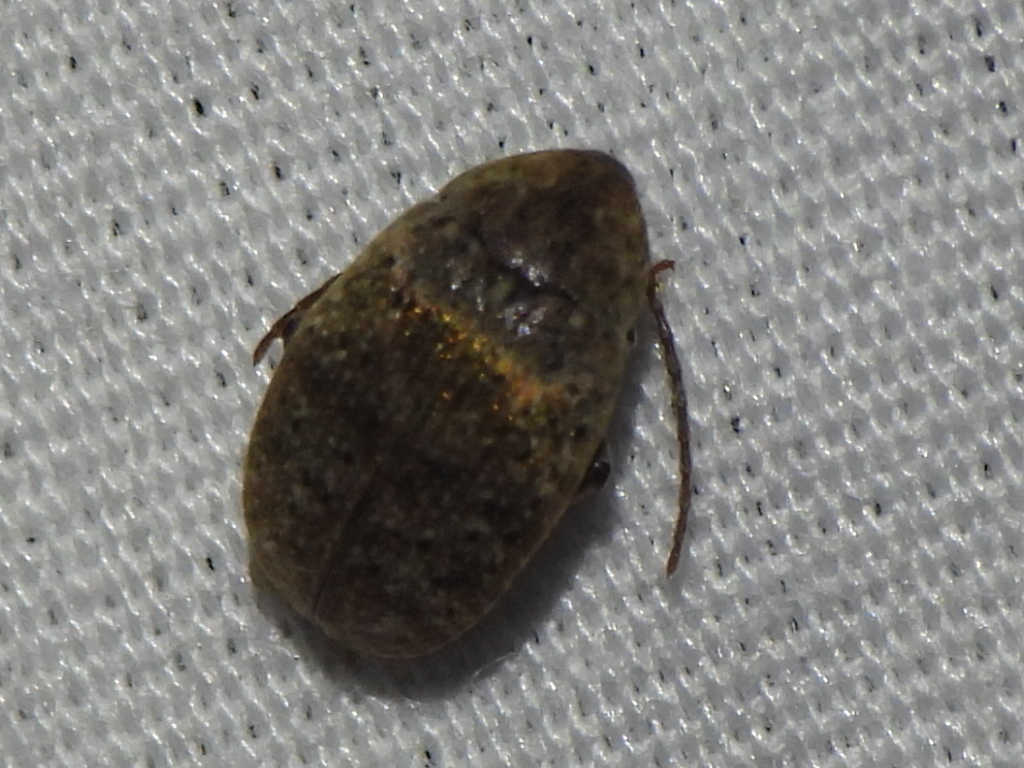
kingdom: Animalia
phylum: Arthropoda
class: Insecta
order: Coleoptera
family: Chrysomelidae
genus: Amblycerus
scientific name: Amblycerus robiniae
